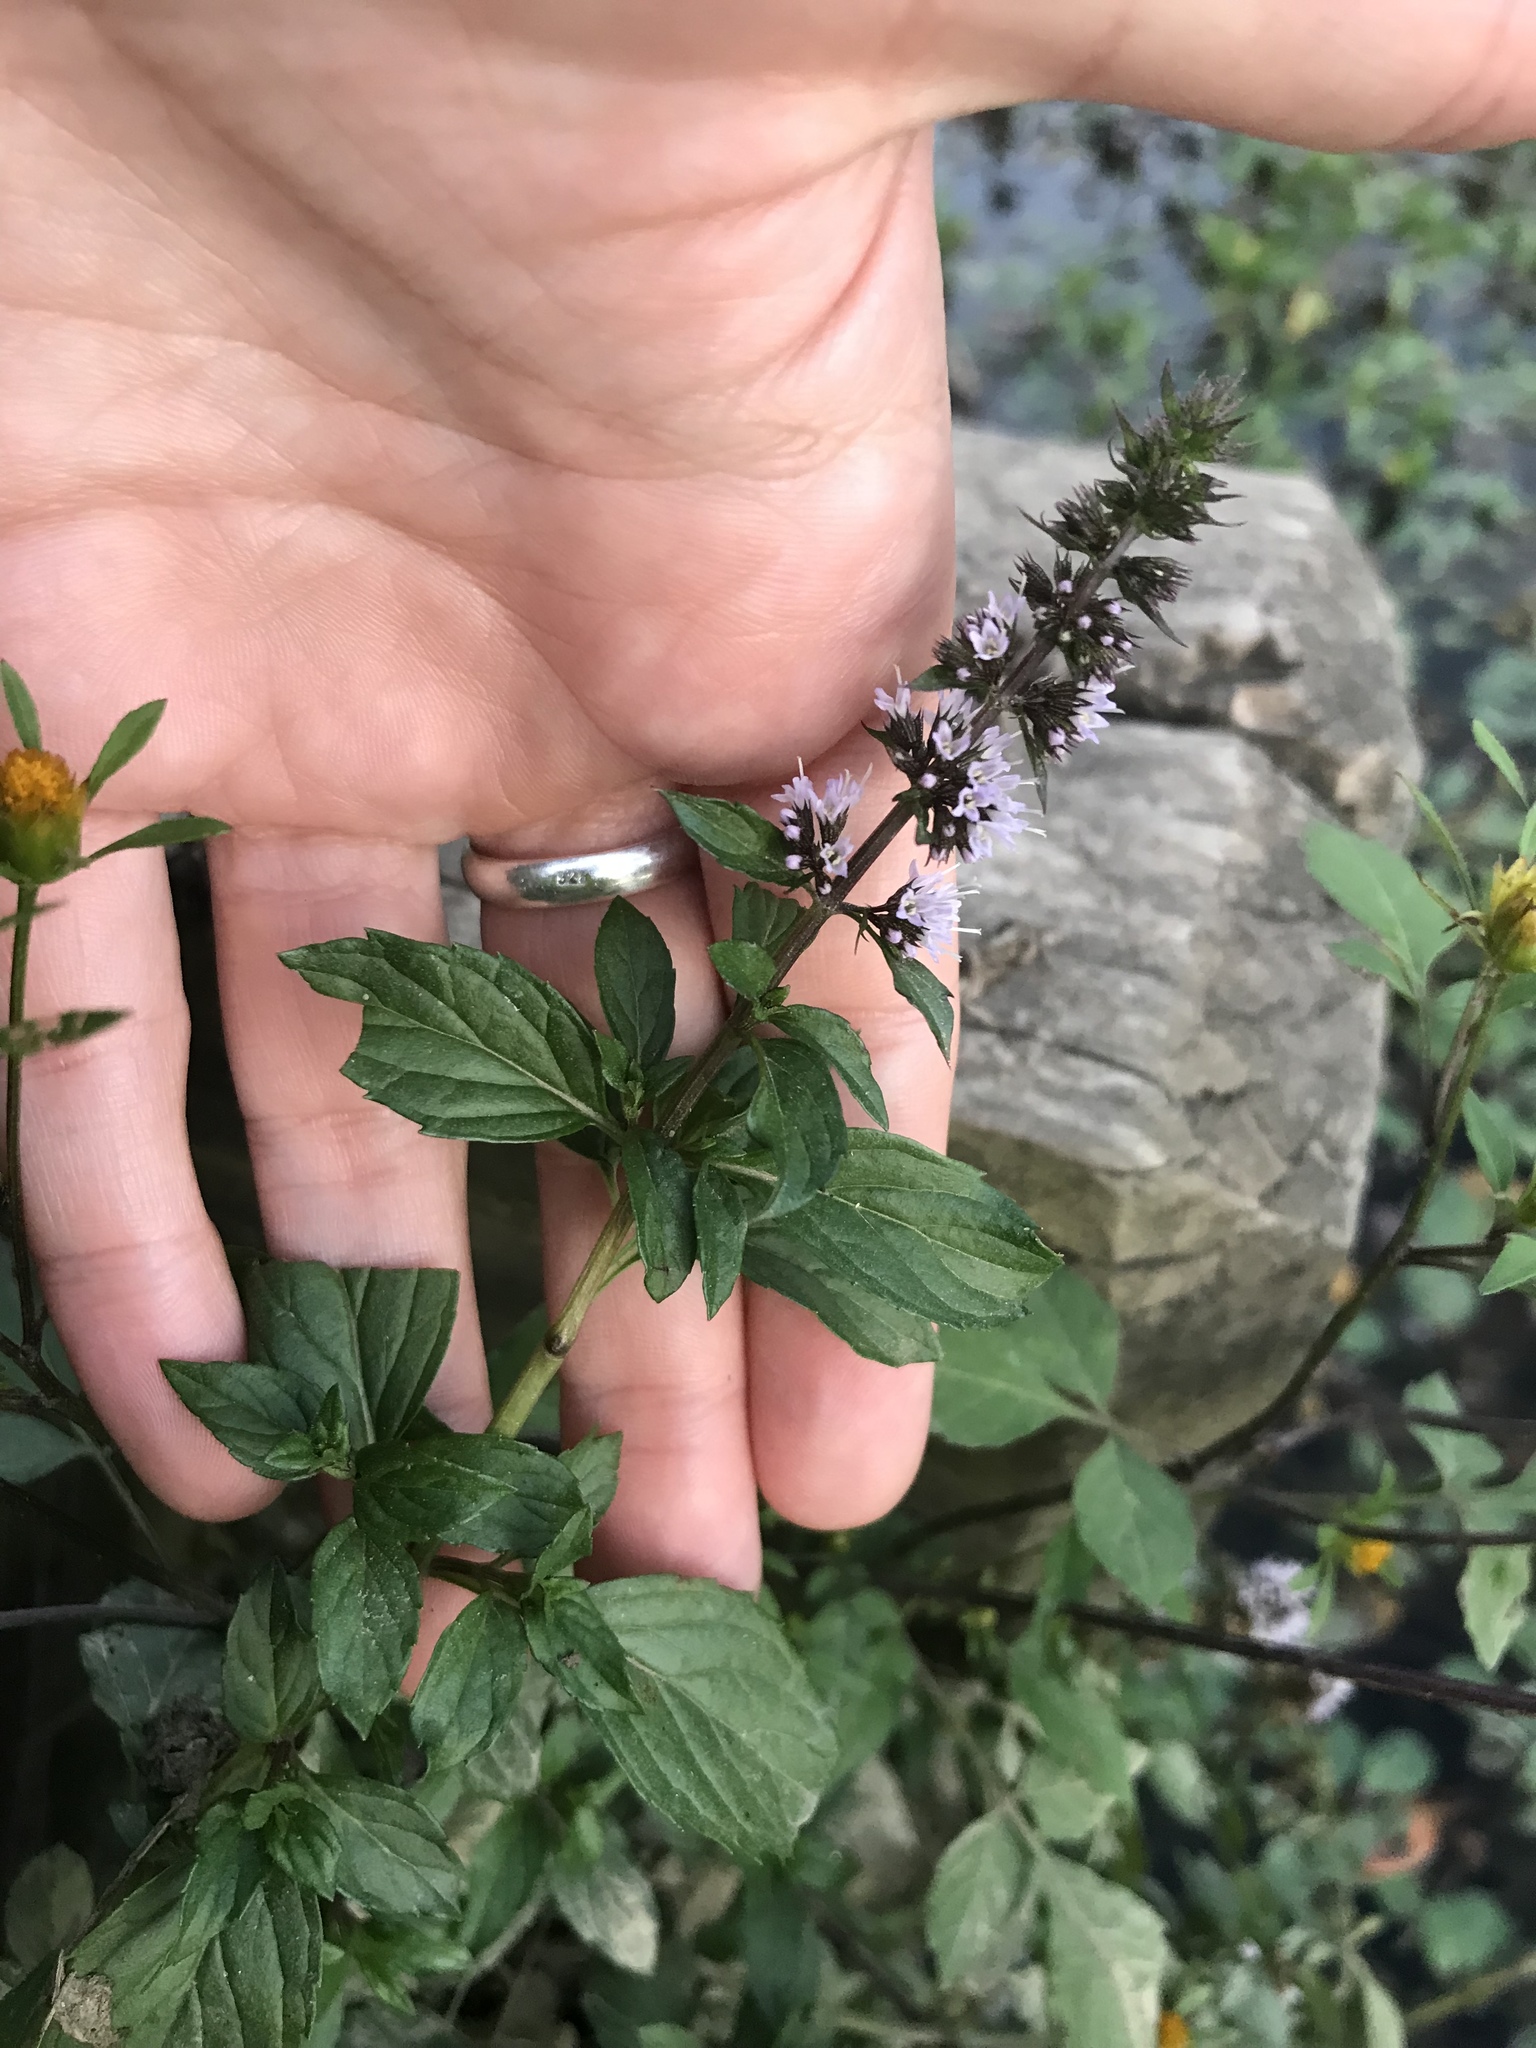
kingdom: Plantae
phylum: Tracheophyta
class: Magnoliopsida
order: Lamiales
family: Lamiaceae
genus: Mentha
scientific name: Mentha piperita
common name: Peppermint
